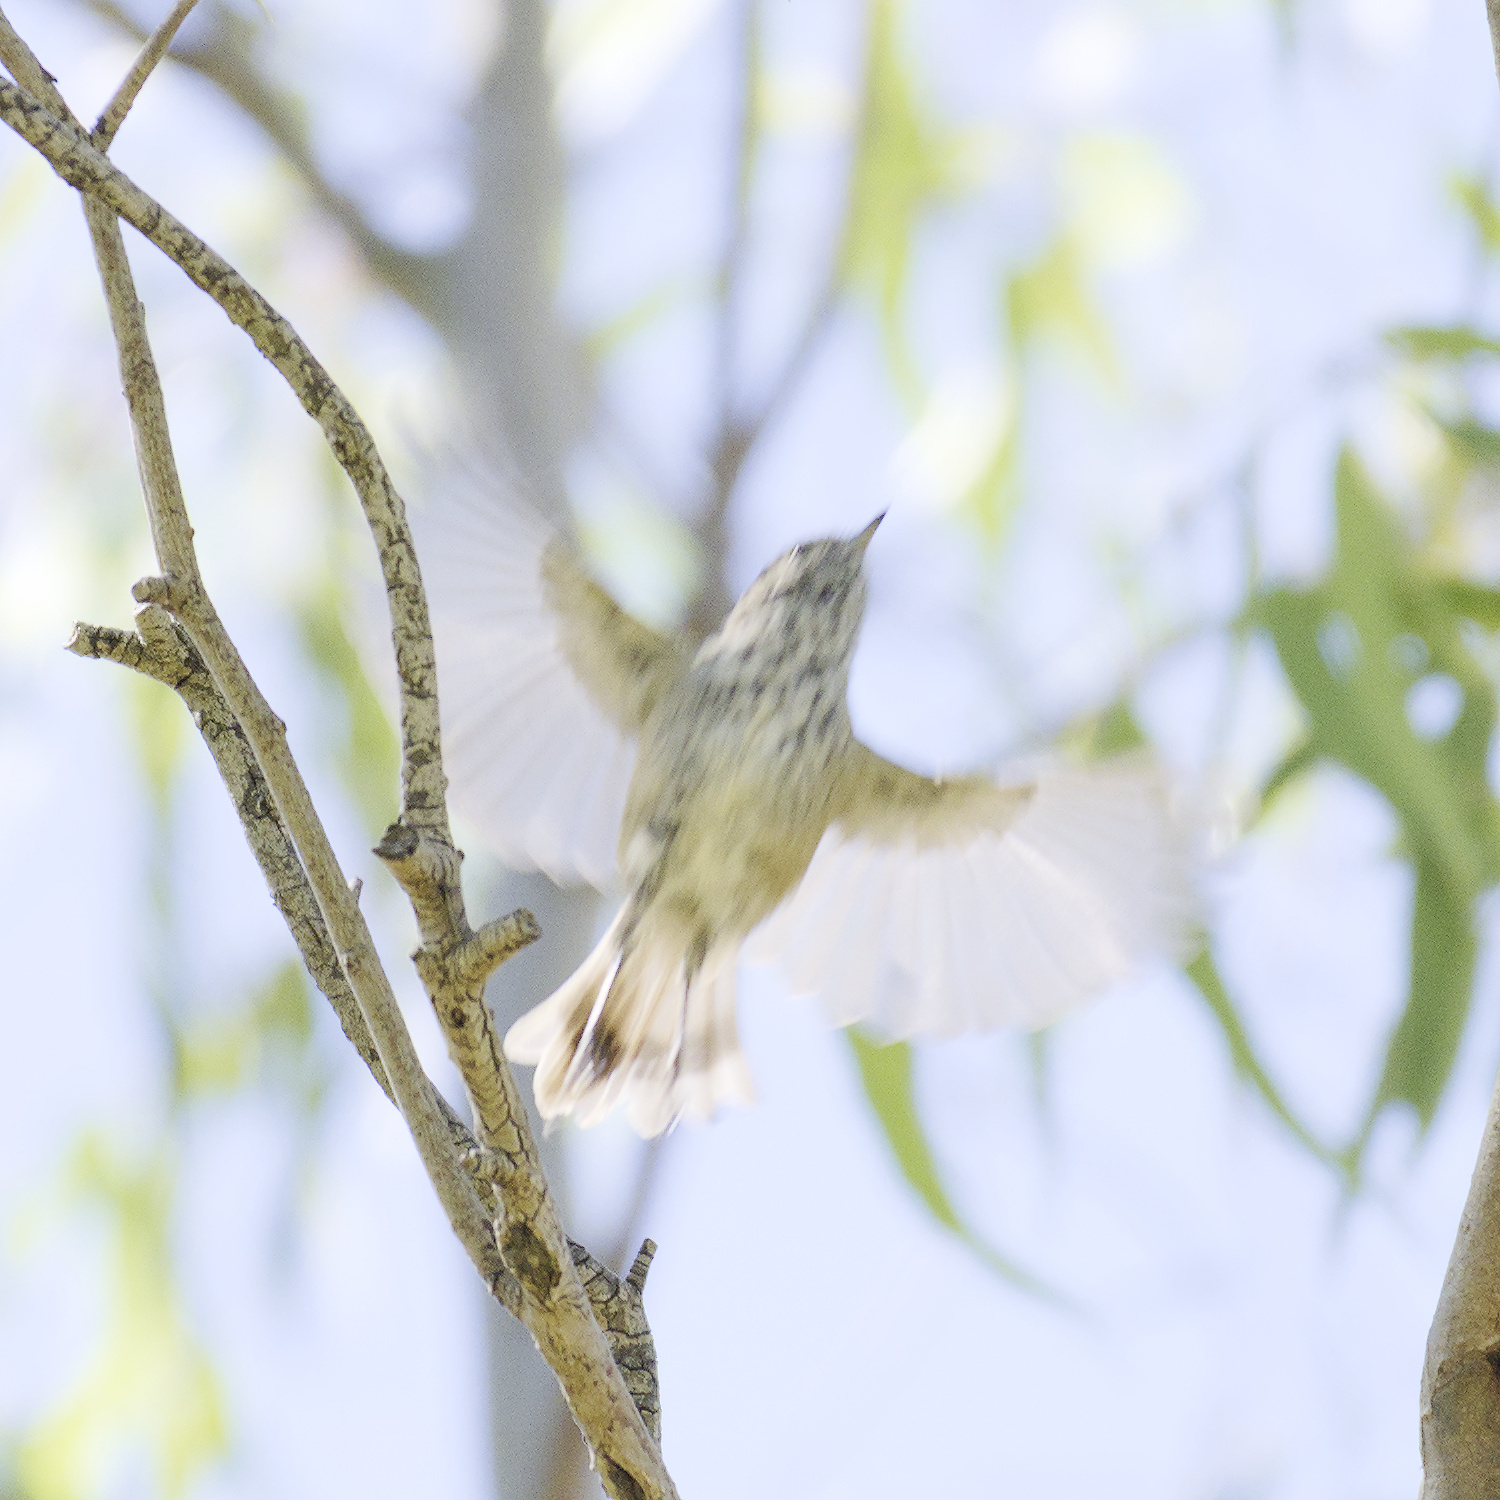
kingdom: Animalia
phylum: Chordata
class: Aves
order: Passeriformes
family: Acanthizidae
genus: Acanthiza
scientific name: Acanthiza pusilla
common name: Brown thornbill
